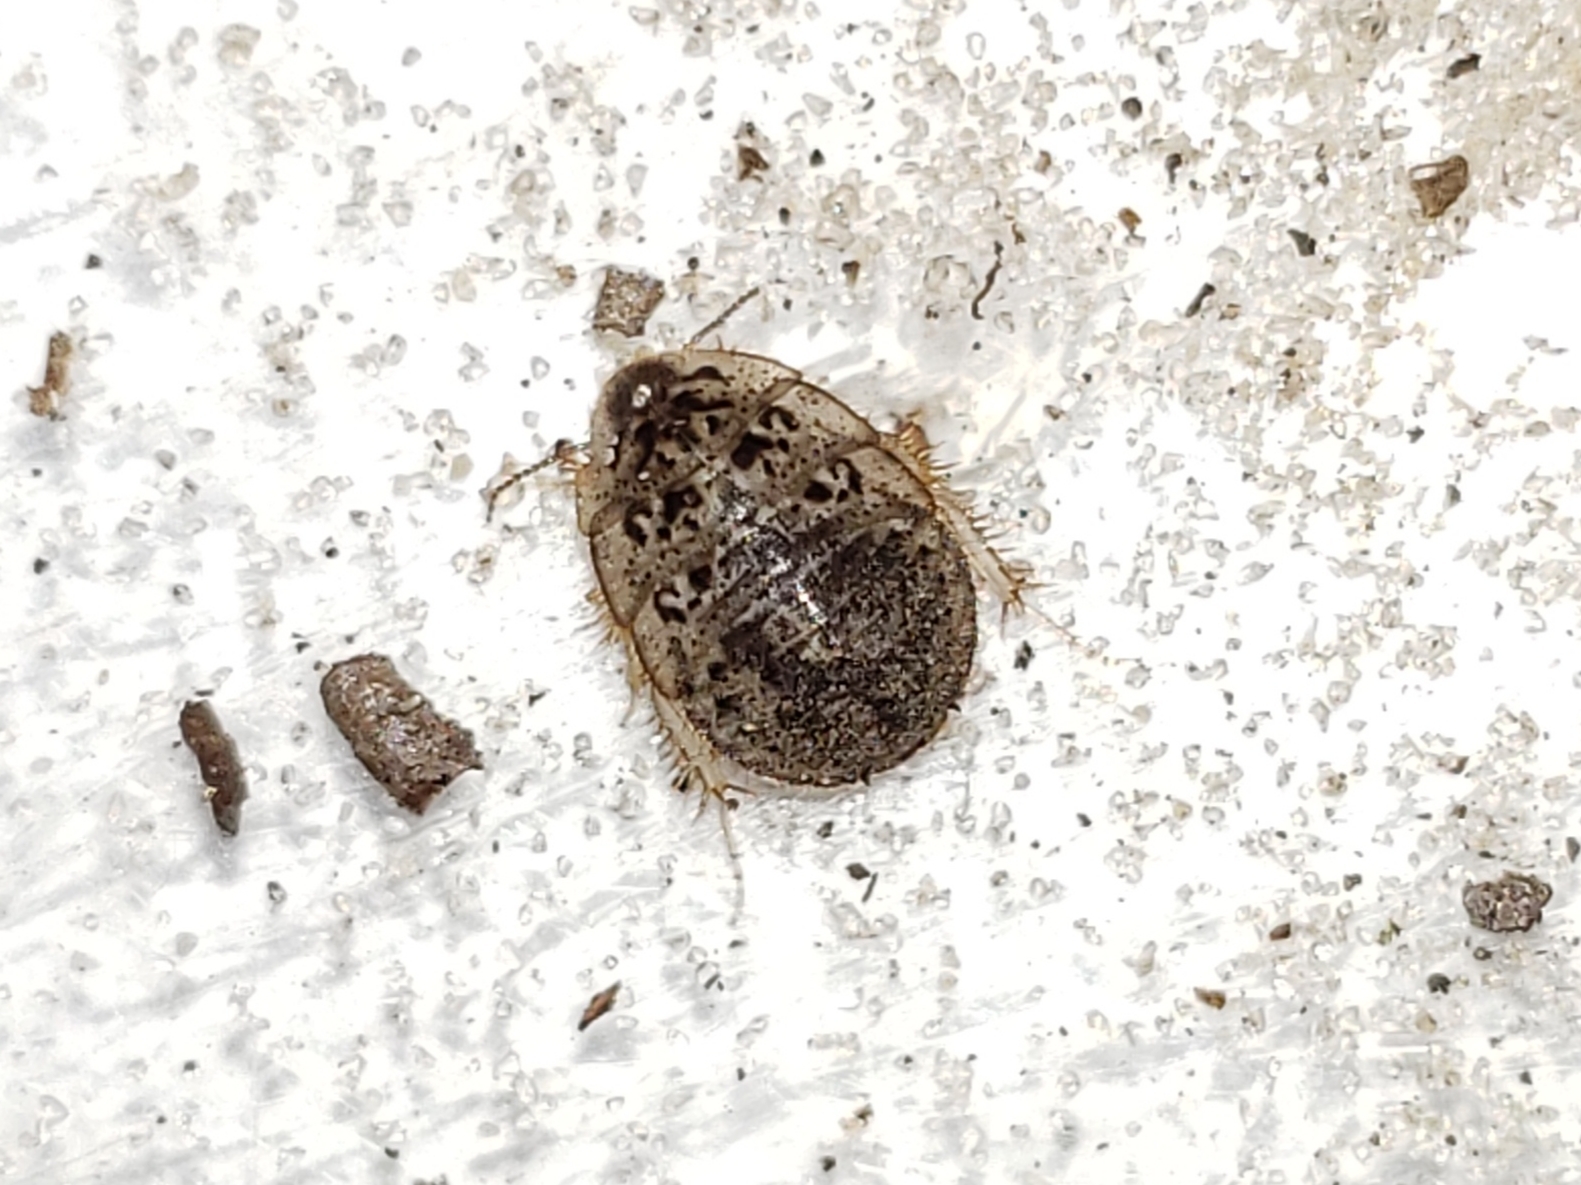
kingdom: Animalia
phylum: Arthropoda
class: Insecta
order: Blattodea
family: Corydiidae
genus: Arenivaga
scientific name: Arenivaga floridensis
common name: Florida sand cockroach
